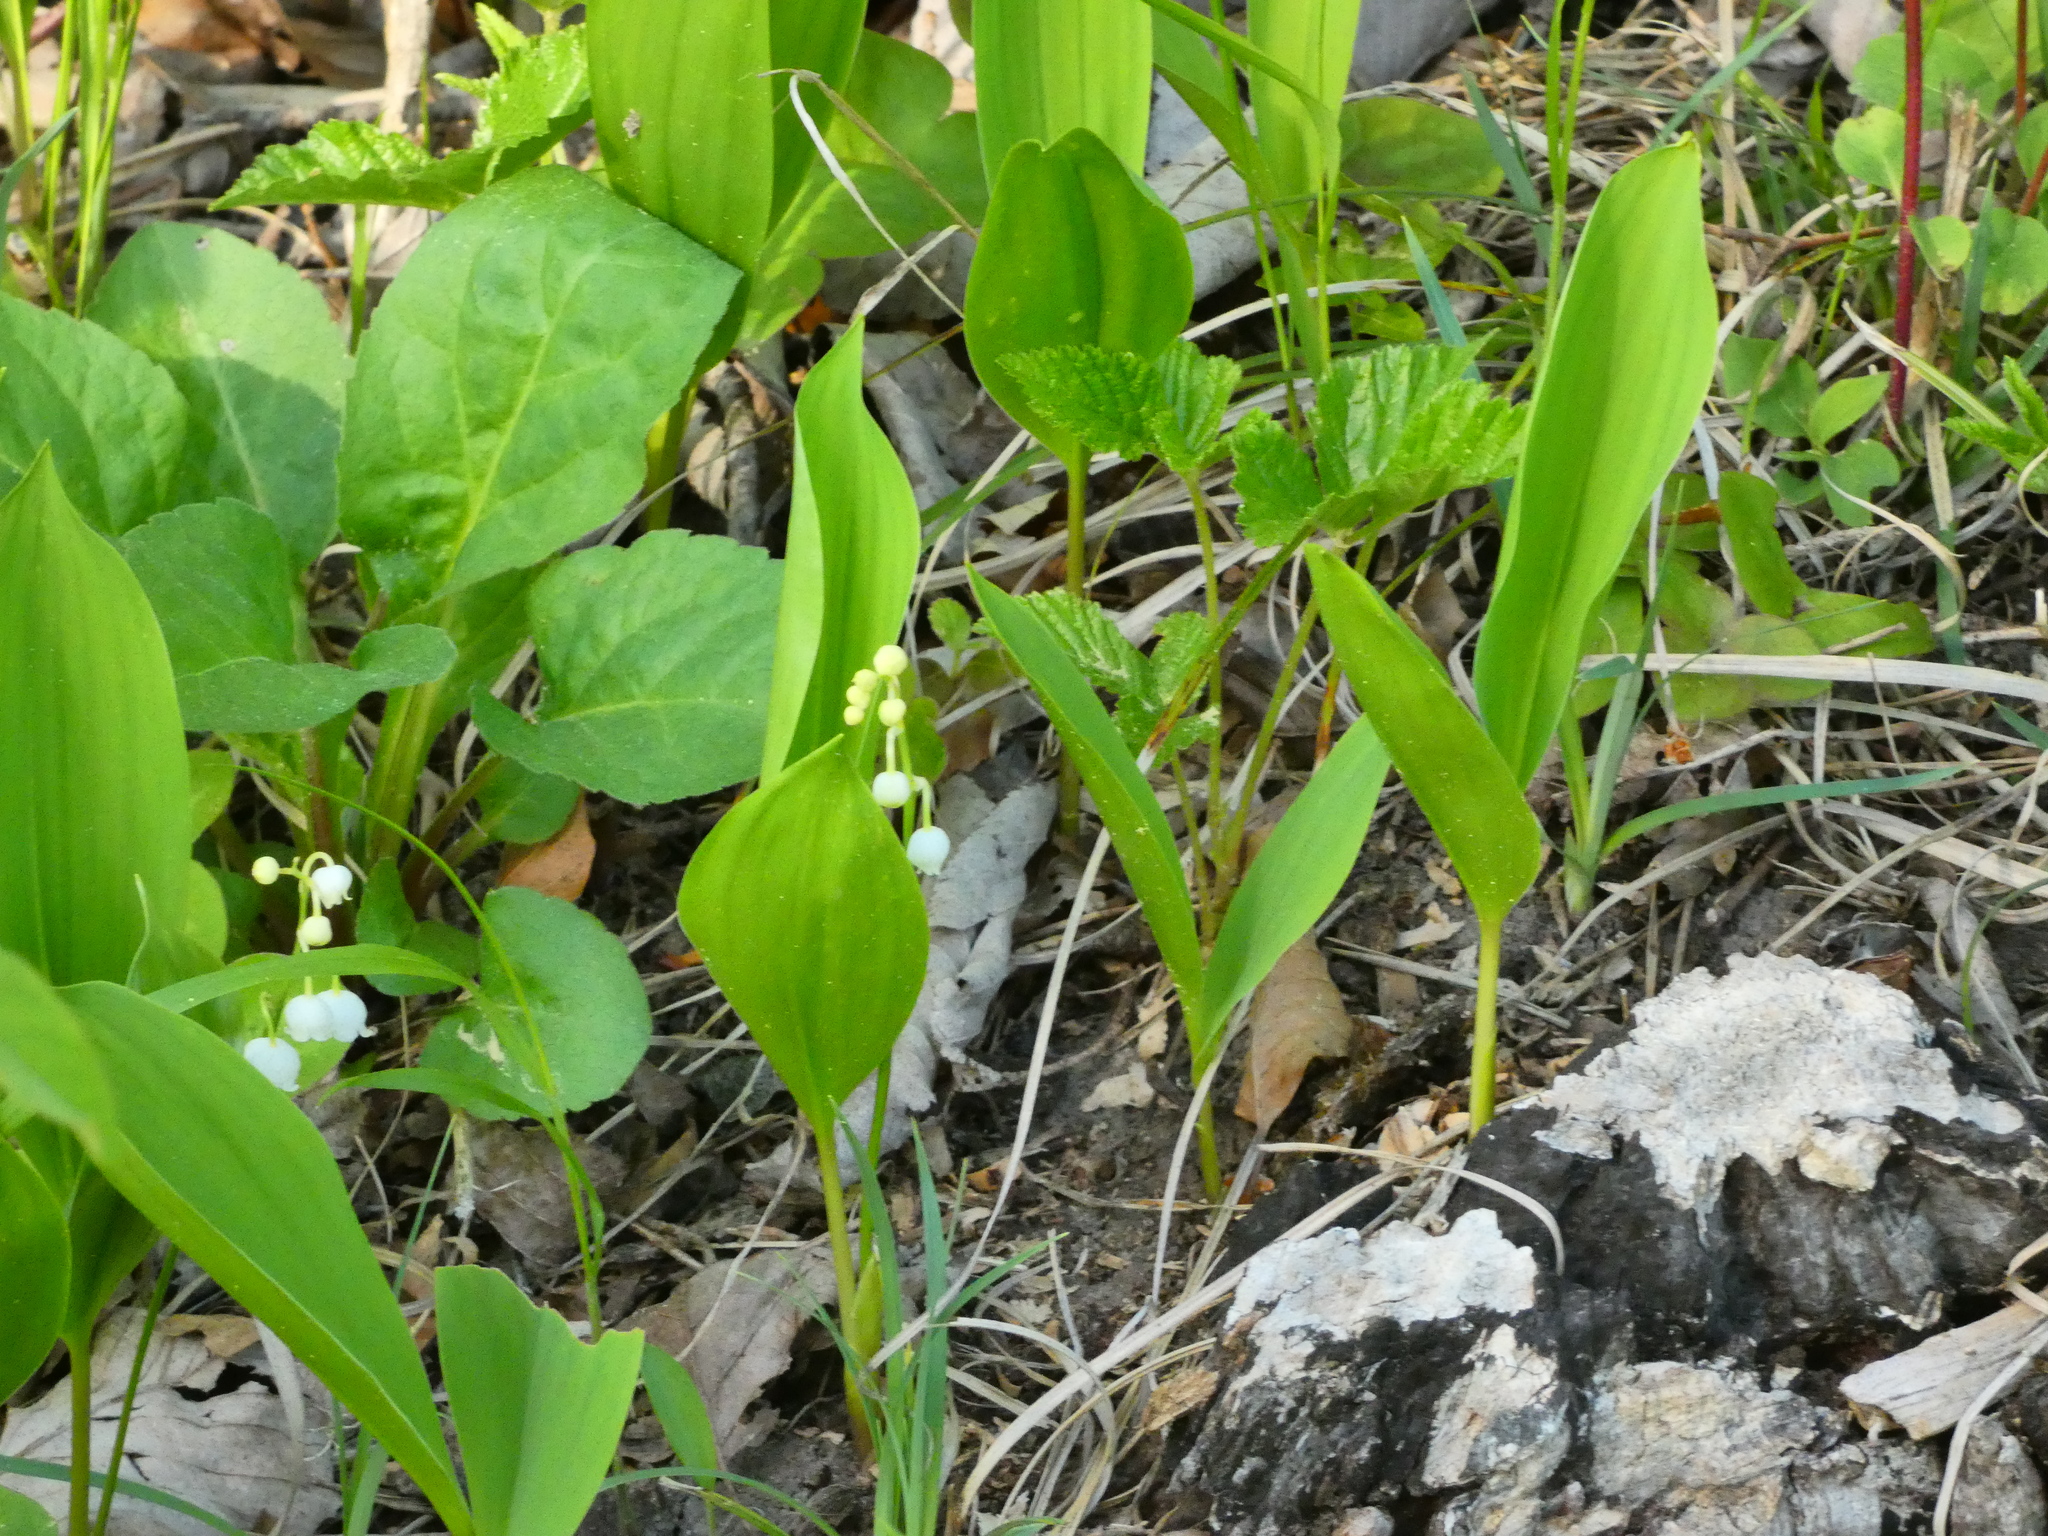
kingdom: Plantae
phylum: Tracheophyta
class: Liliopsida
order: Asparagales
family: Asparagaceae
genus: Convallaria
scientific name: Convallaria majalis
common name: Lily-of-the-valley
